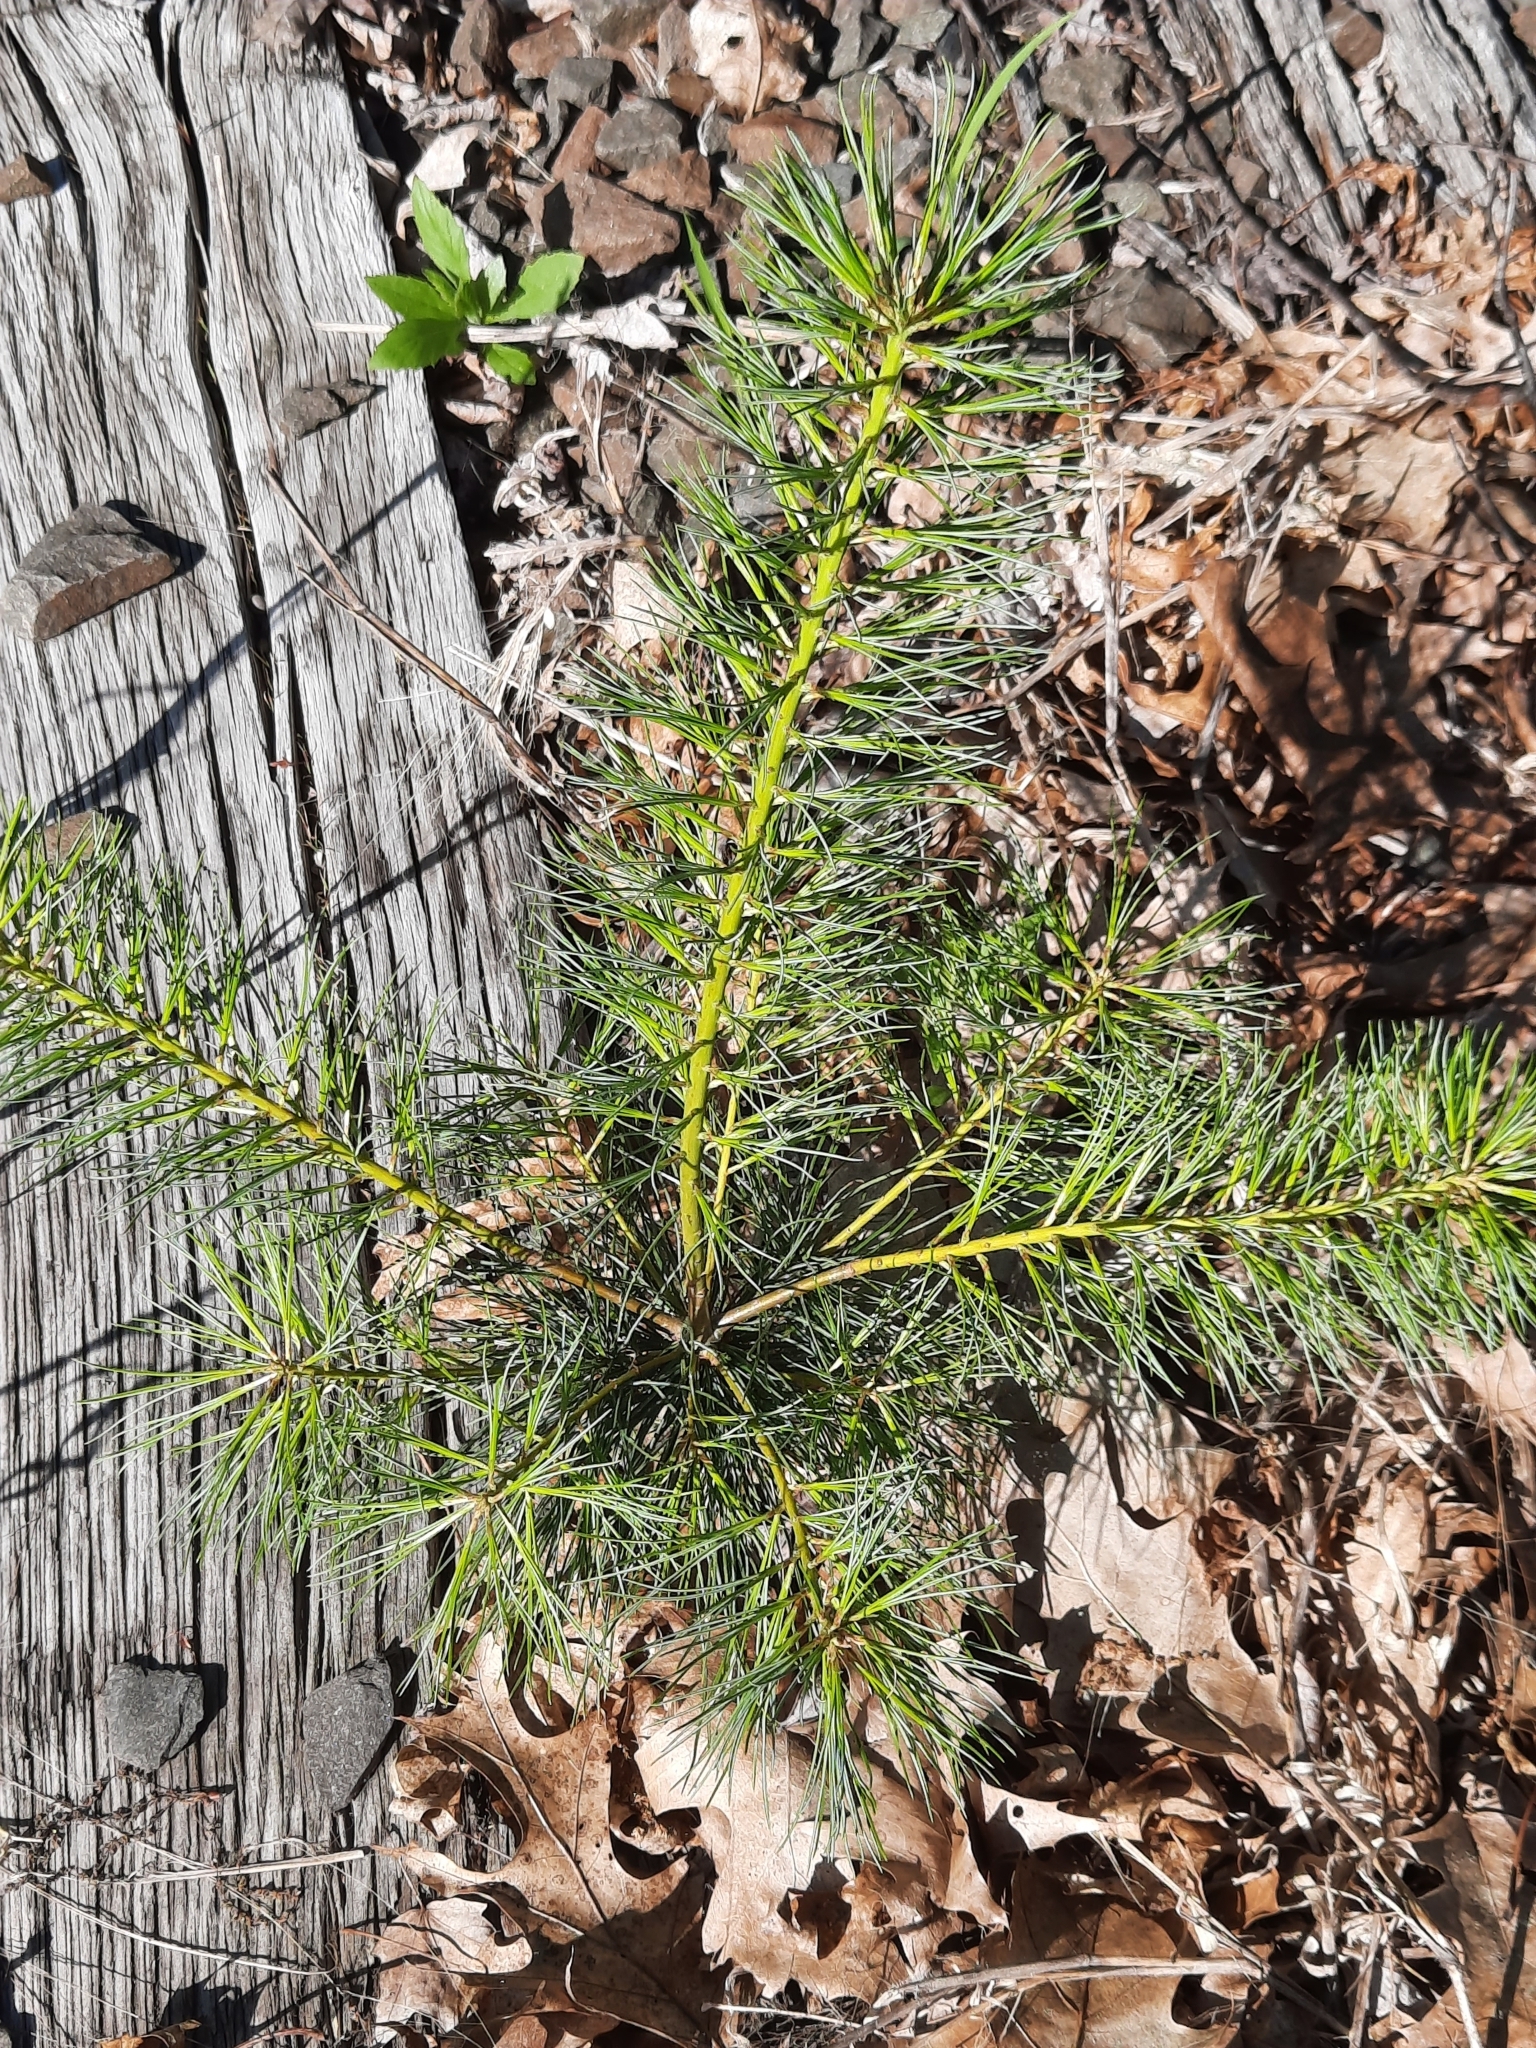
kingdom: Plantae
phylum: Tracheophyta
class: Pinopsida
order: Pinales
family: Pinaceae
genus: Pinus
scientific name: Pinus strobus
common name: Weymouth pine
